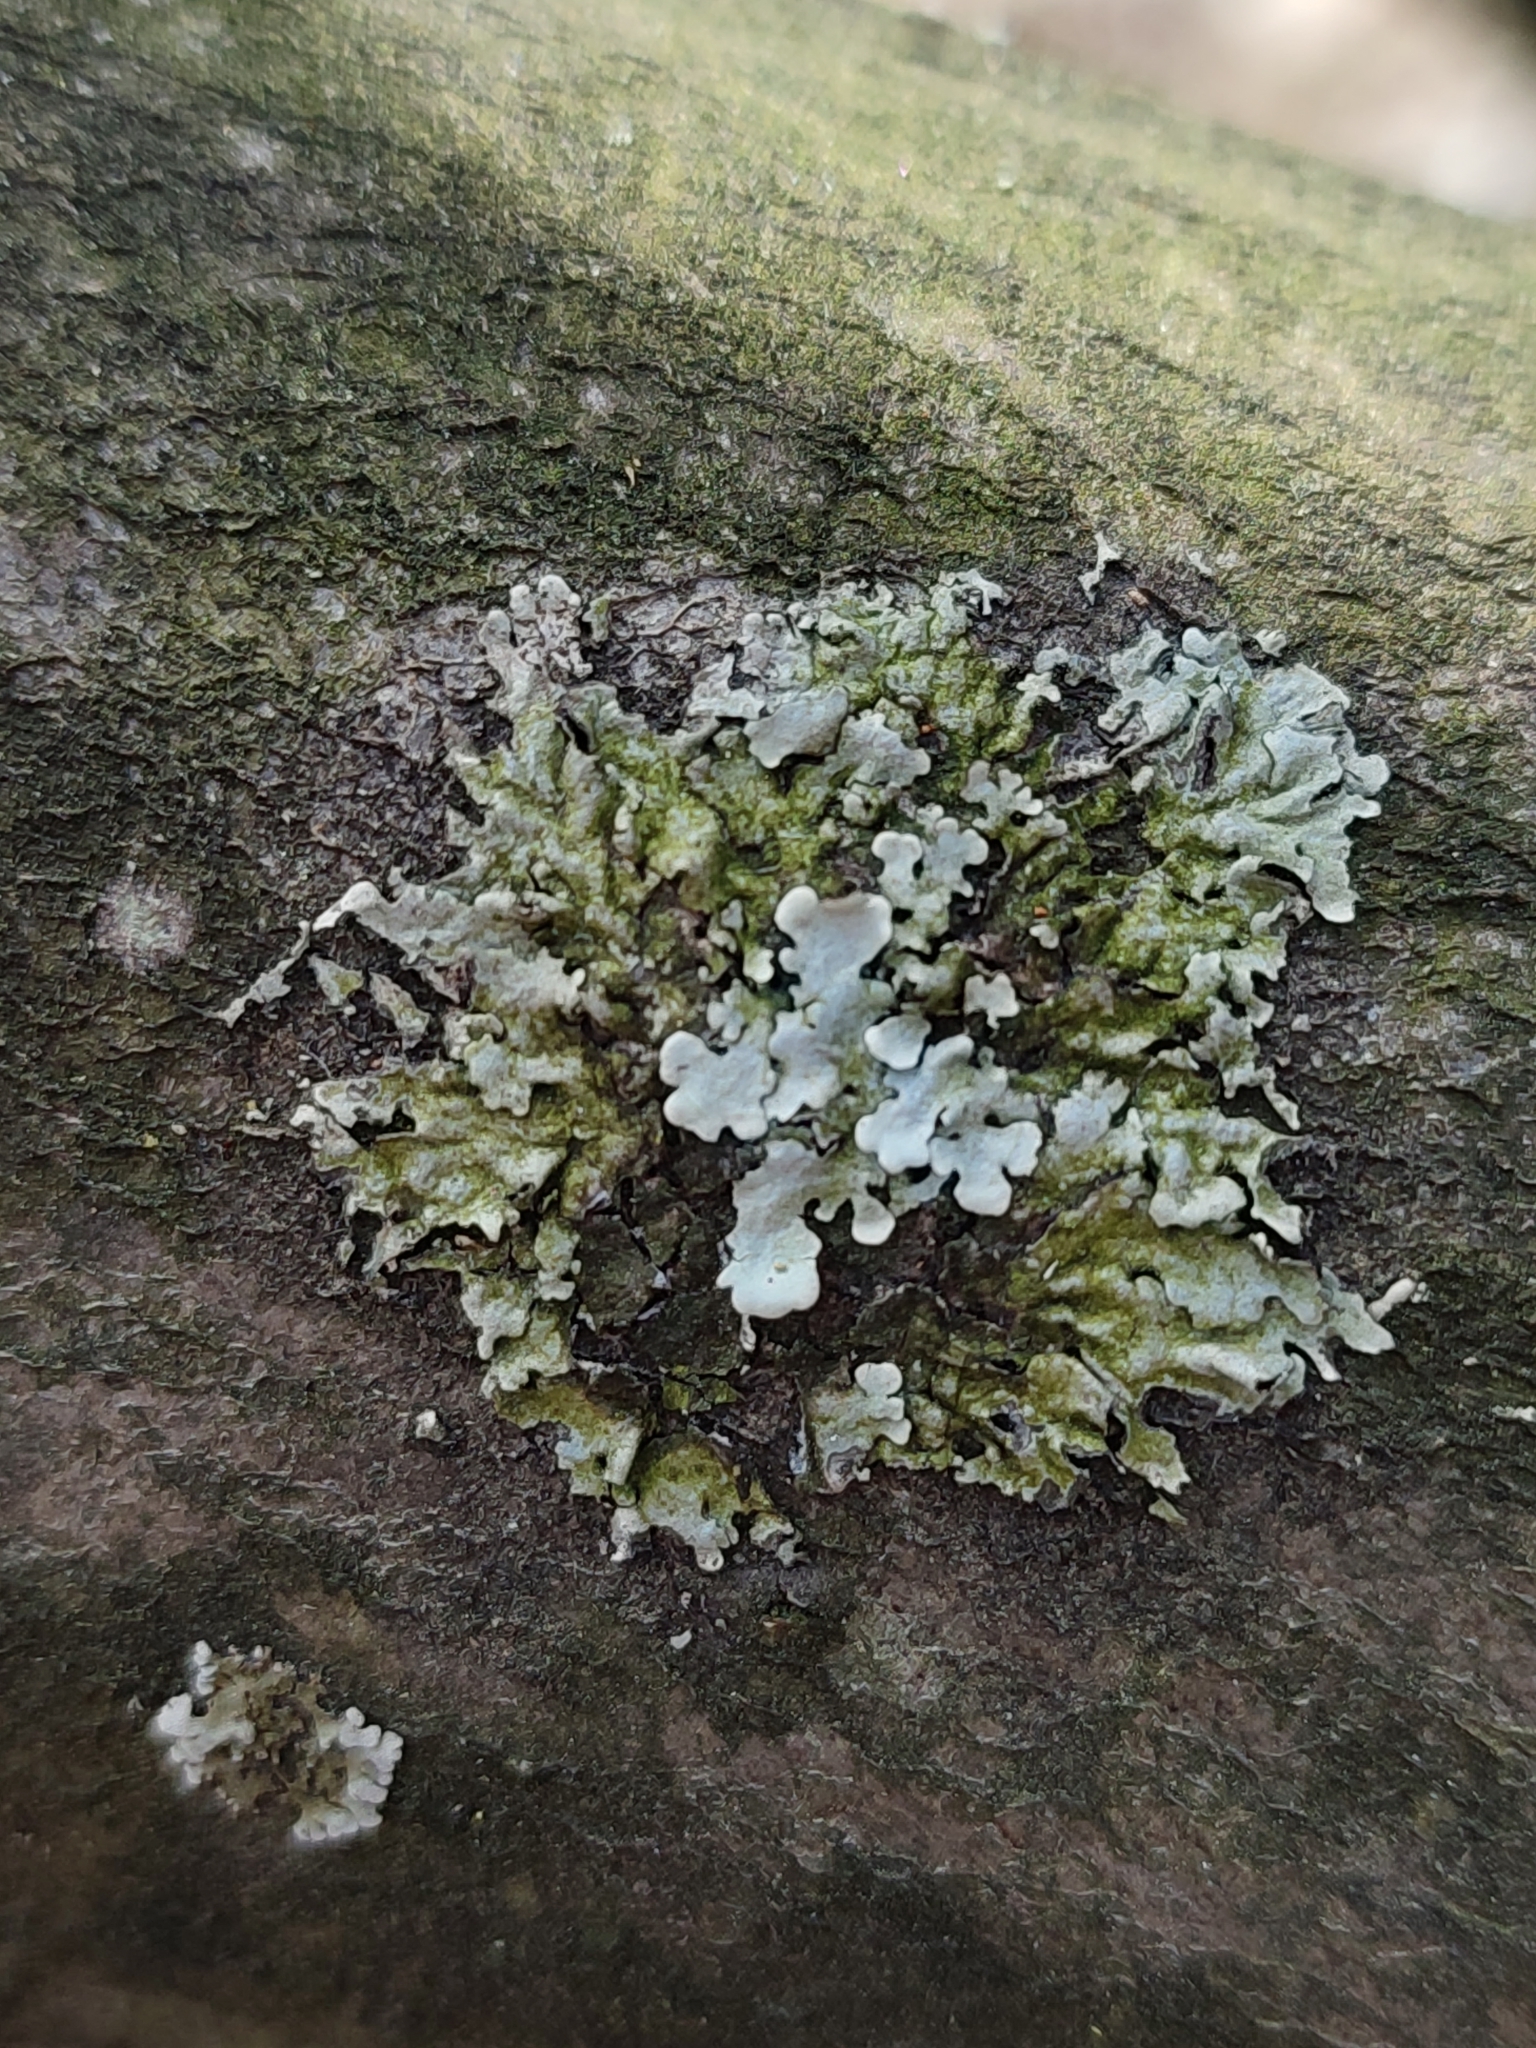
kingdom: Fungi
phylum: Ascomycota
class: Lecanoromycetes
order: Lecanorales
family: Parmeliaceae
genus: Parmelina
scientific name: Parmelina tiliacea
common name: Linden shield lichen
